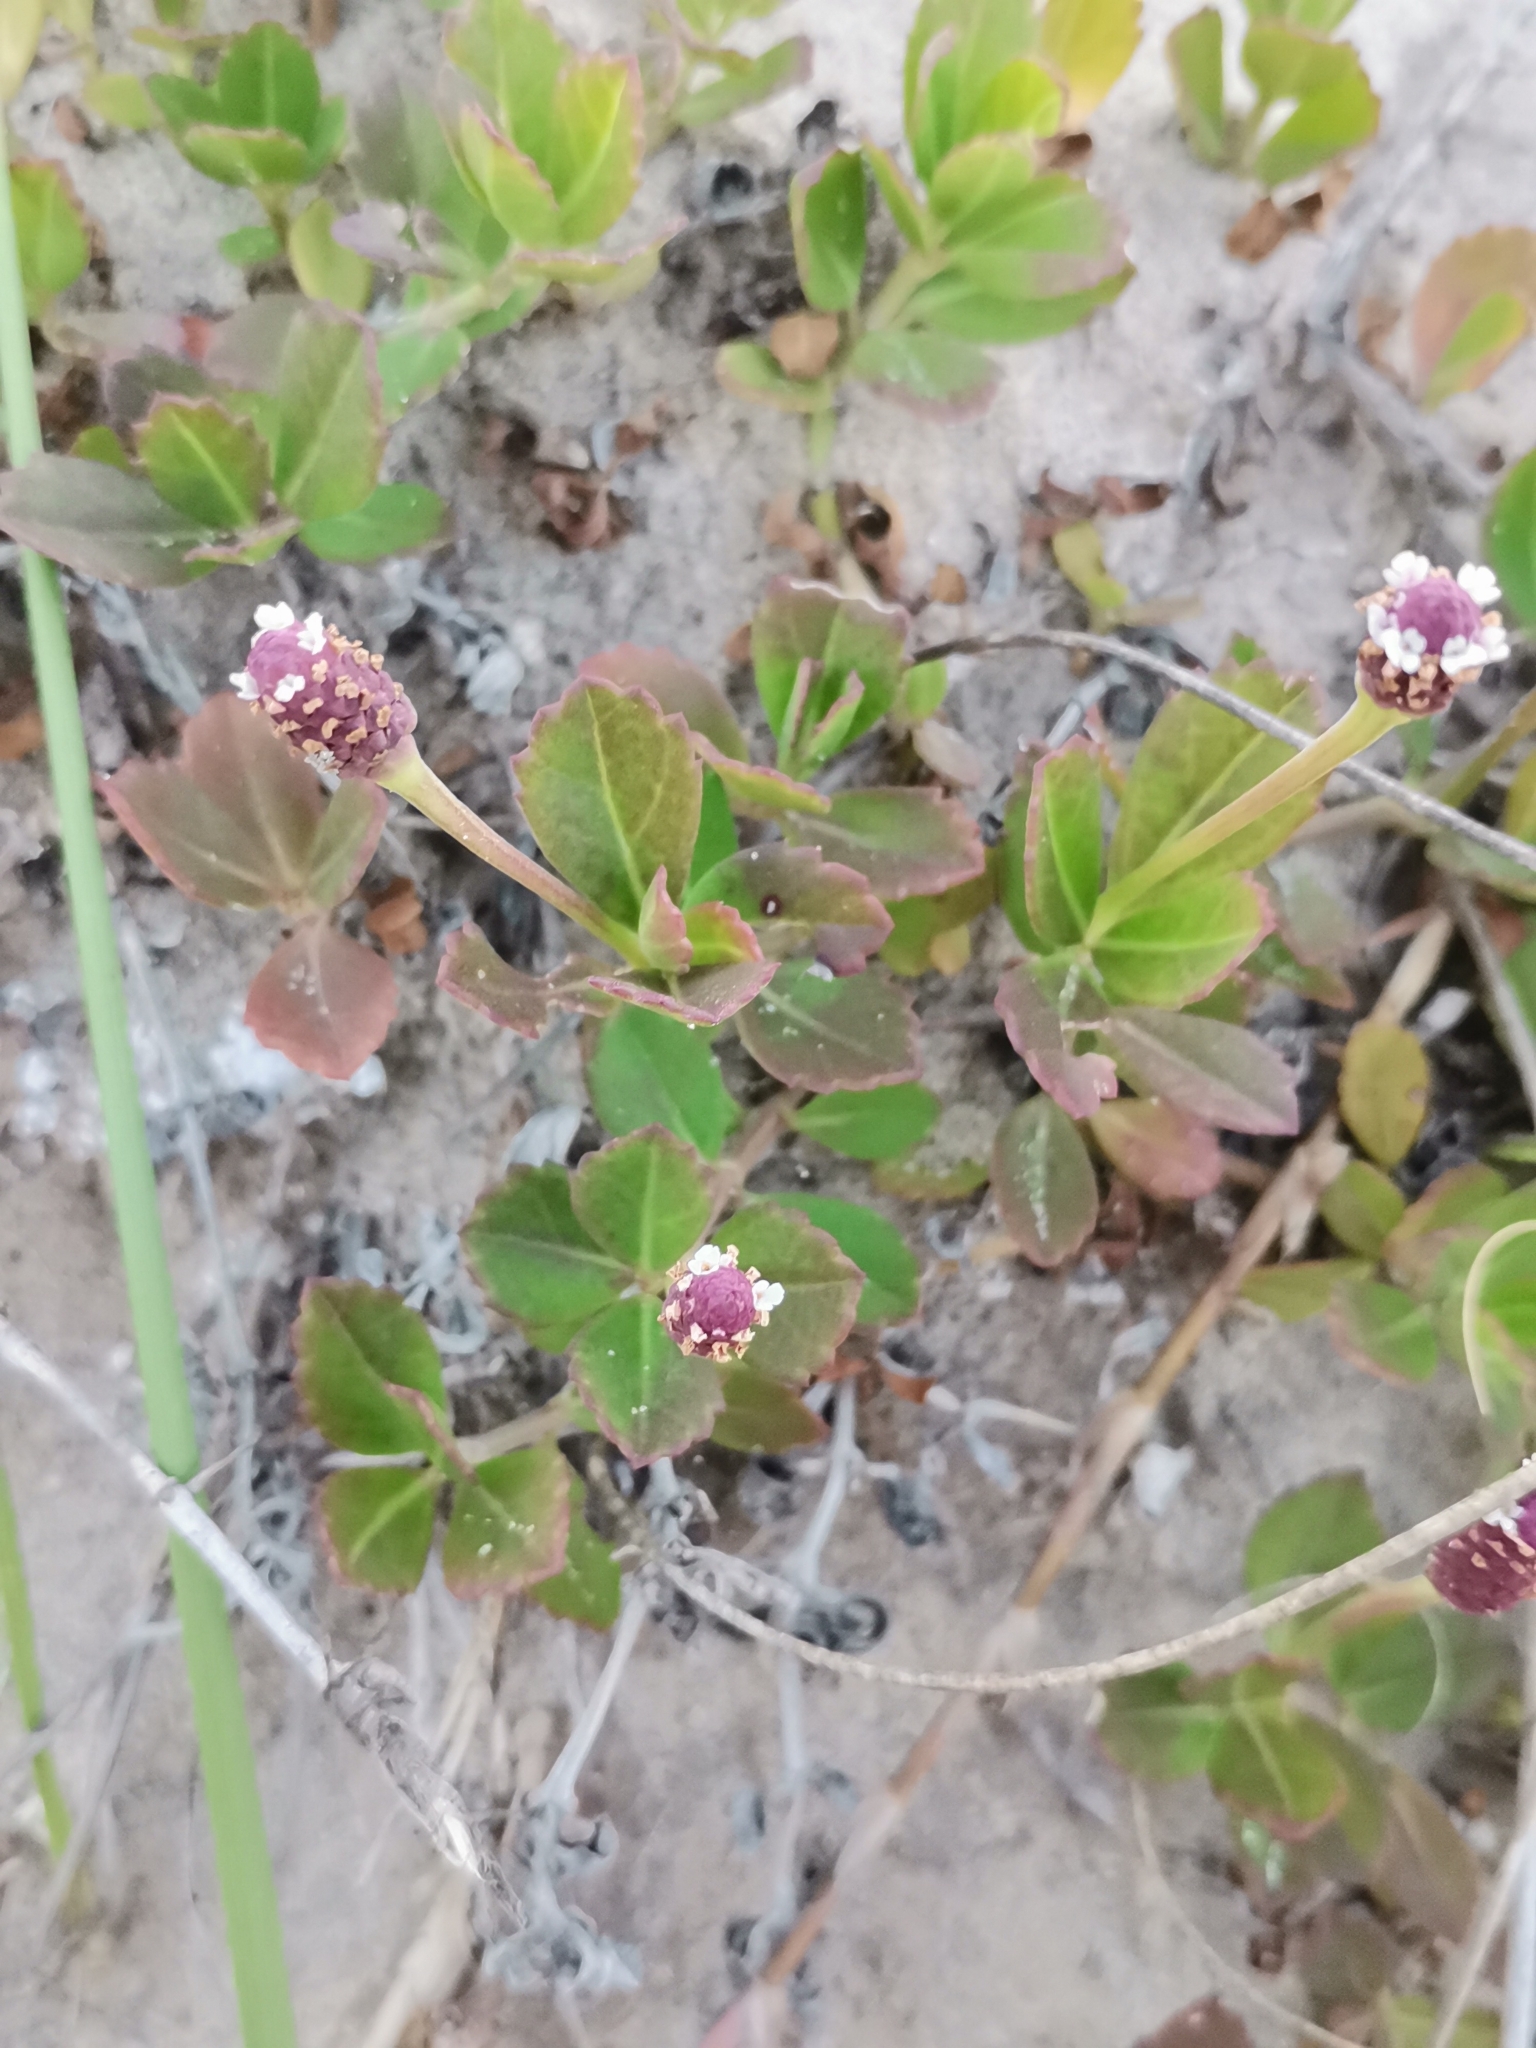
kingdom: Plantae
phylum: Tracheophyta
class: Magnoliopsida
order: Lamiales
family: Verbenaceae
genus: Phyla
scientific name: Phyla nodiflora
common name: Frogfruit
